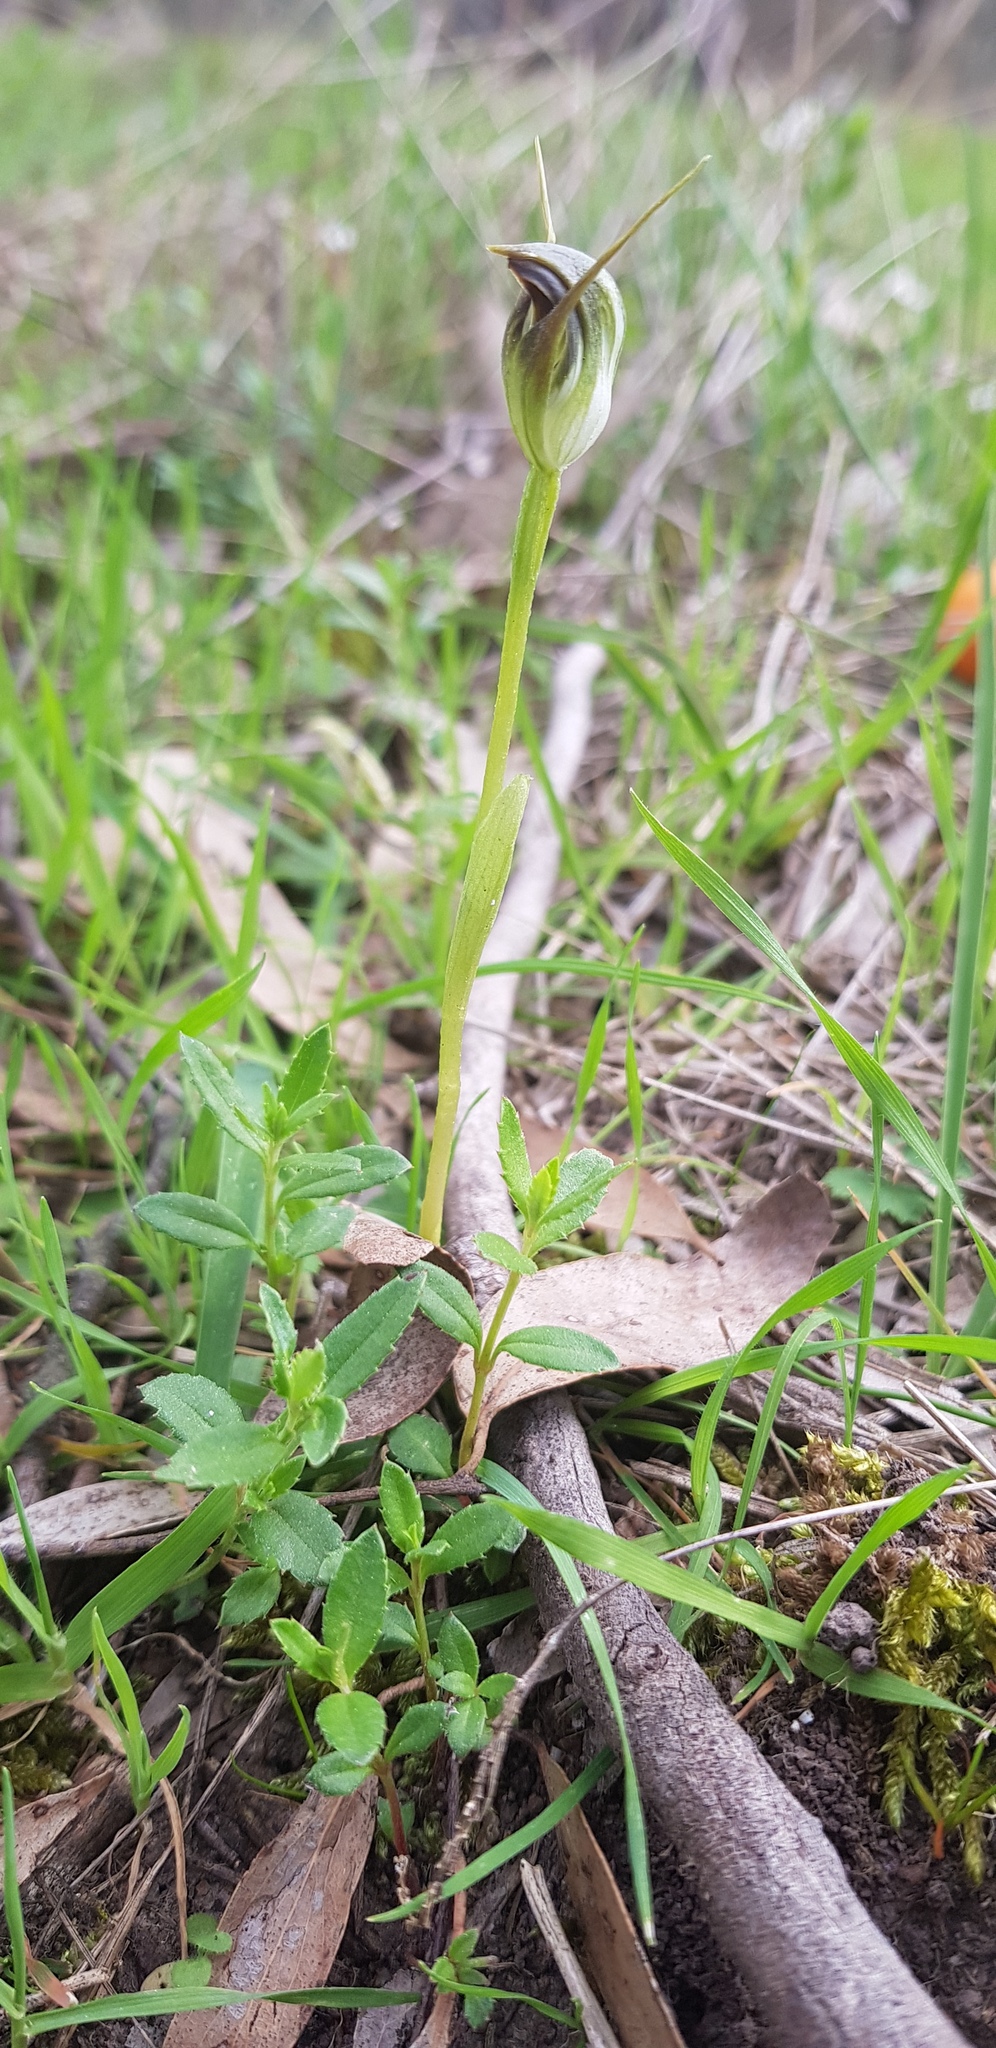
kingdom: Plantae
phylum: Tracheophyta
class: Liliopsida
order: Asparagales
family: Orchidaceae
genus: Pterostylis
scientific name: Pterostylis pedunculata
